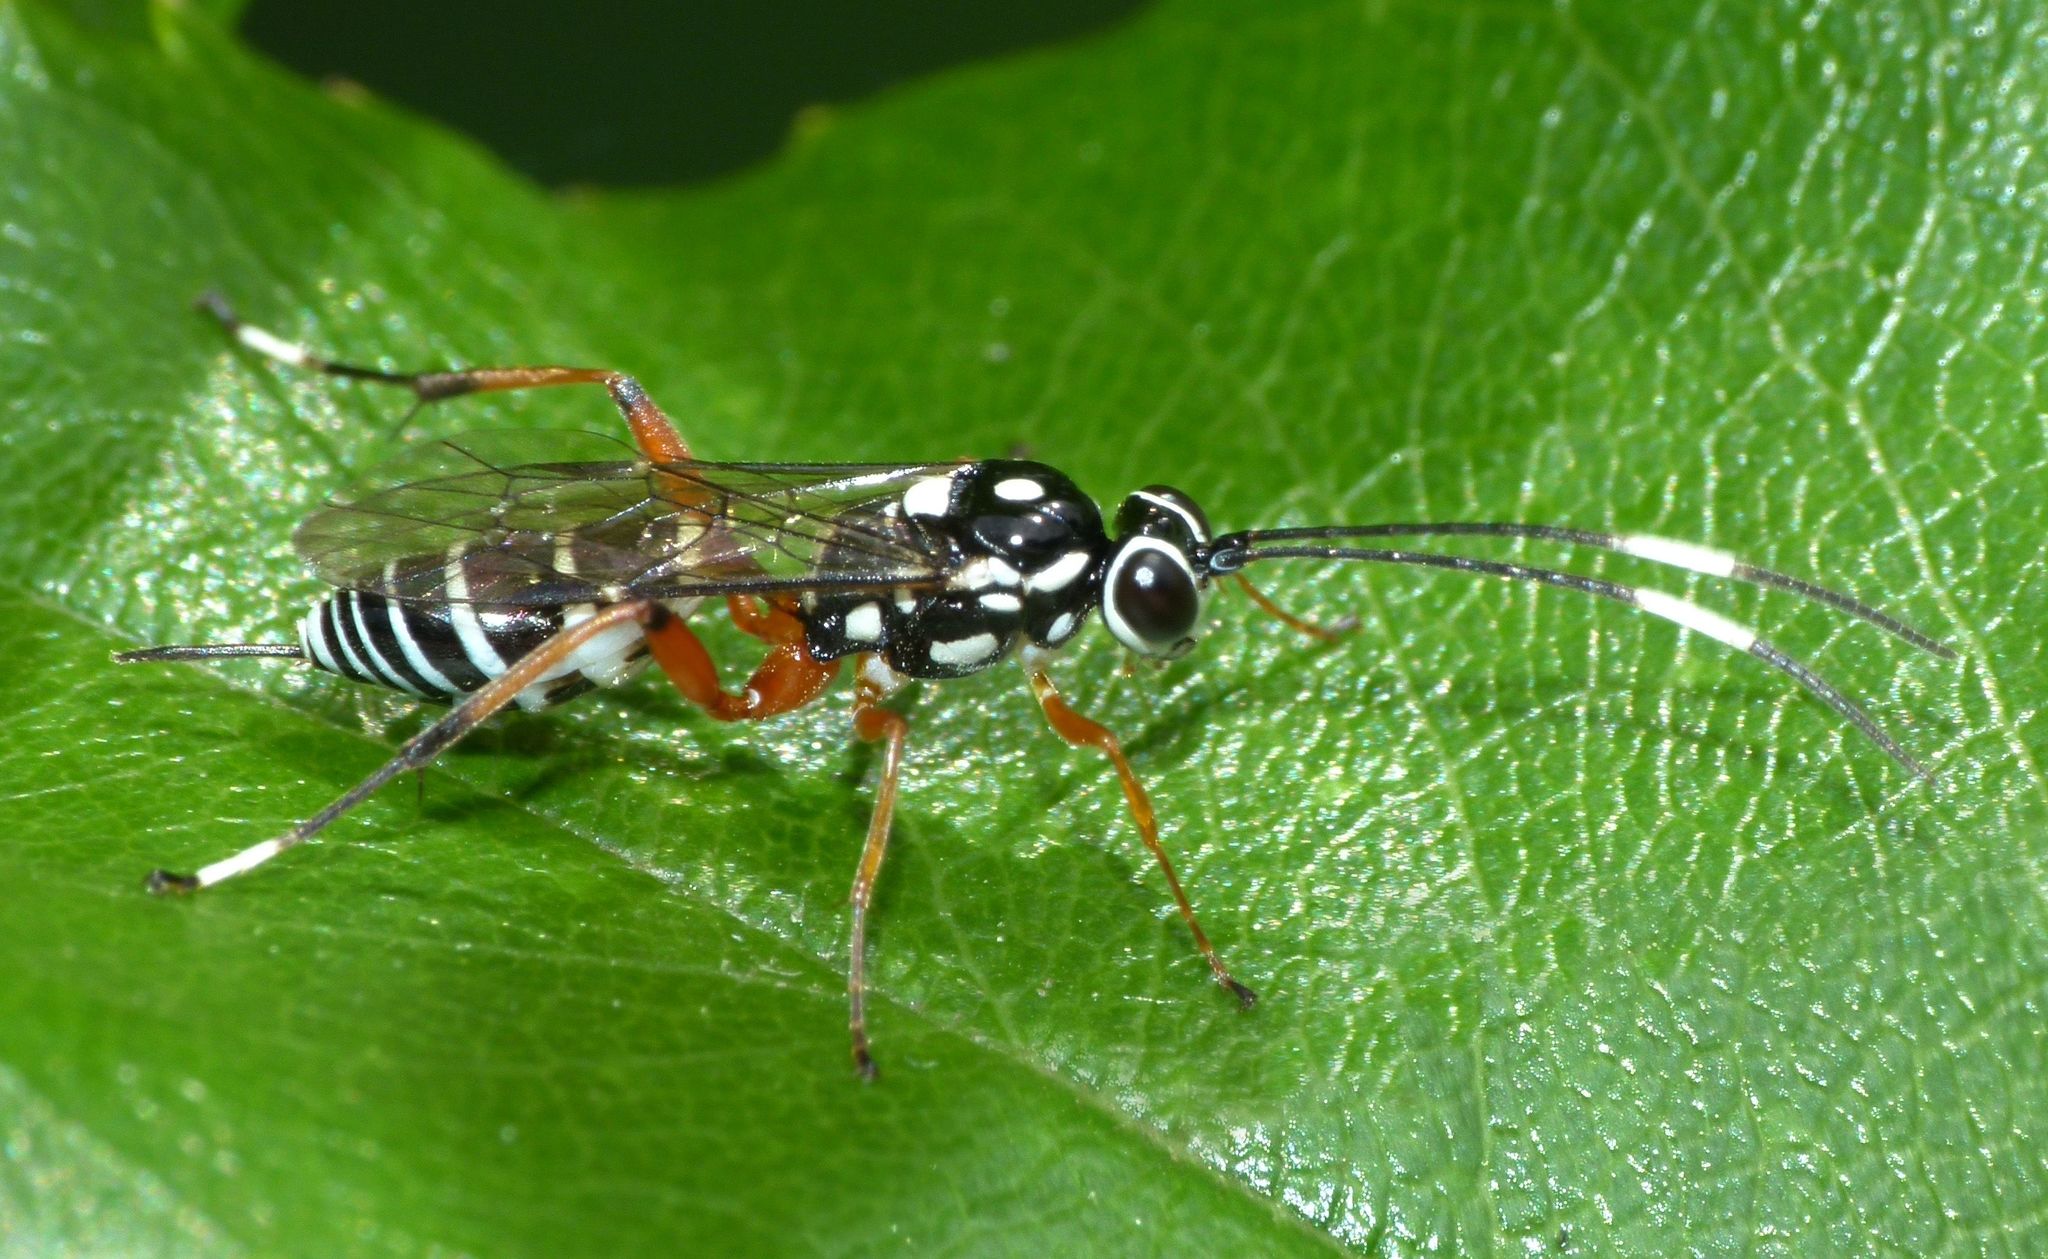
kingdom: Animalia
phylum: Arthropoda
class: Insecta
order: Hymenoptera
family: Ichneumonidae
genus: Glabridorsum
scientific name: Glabridorsum stokesii
